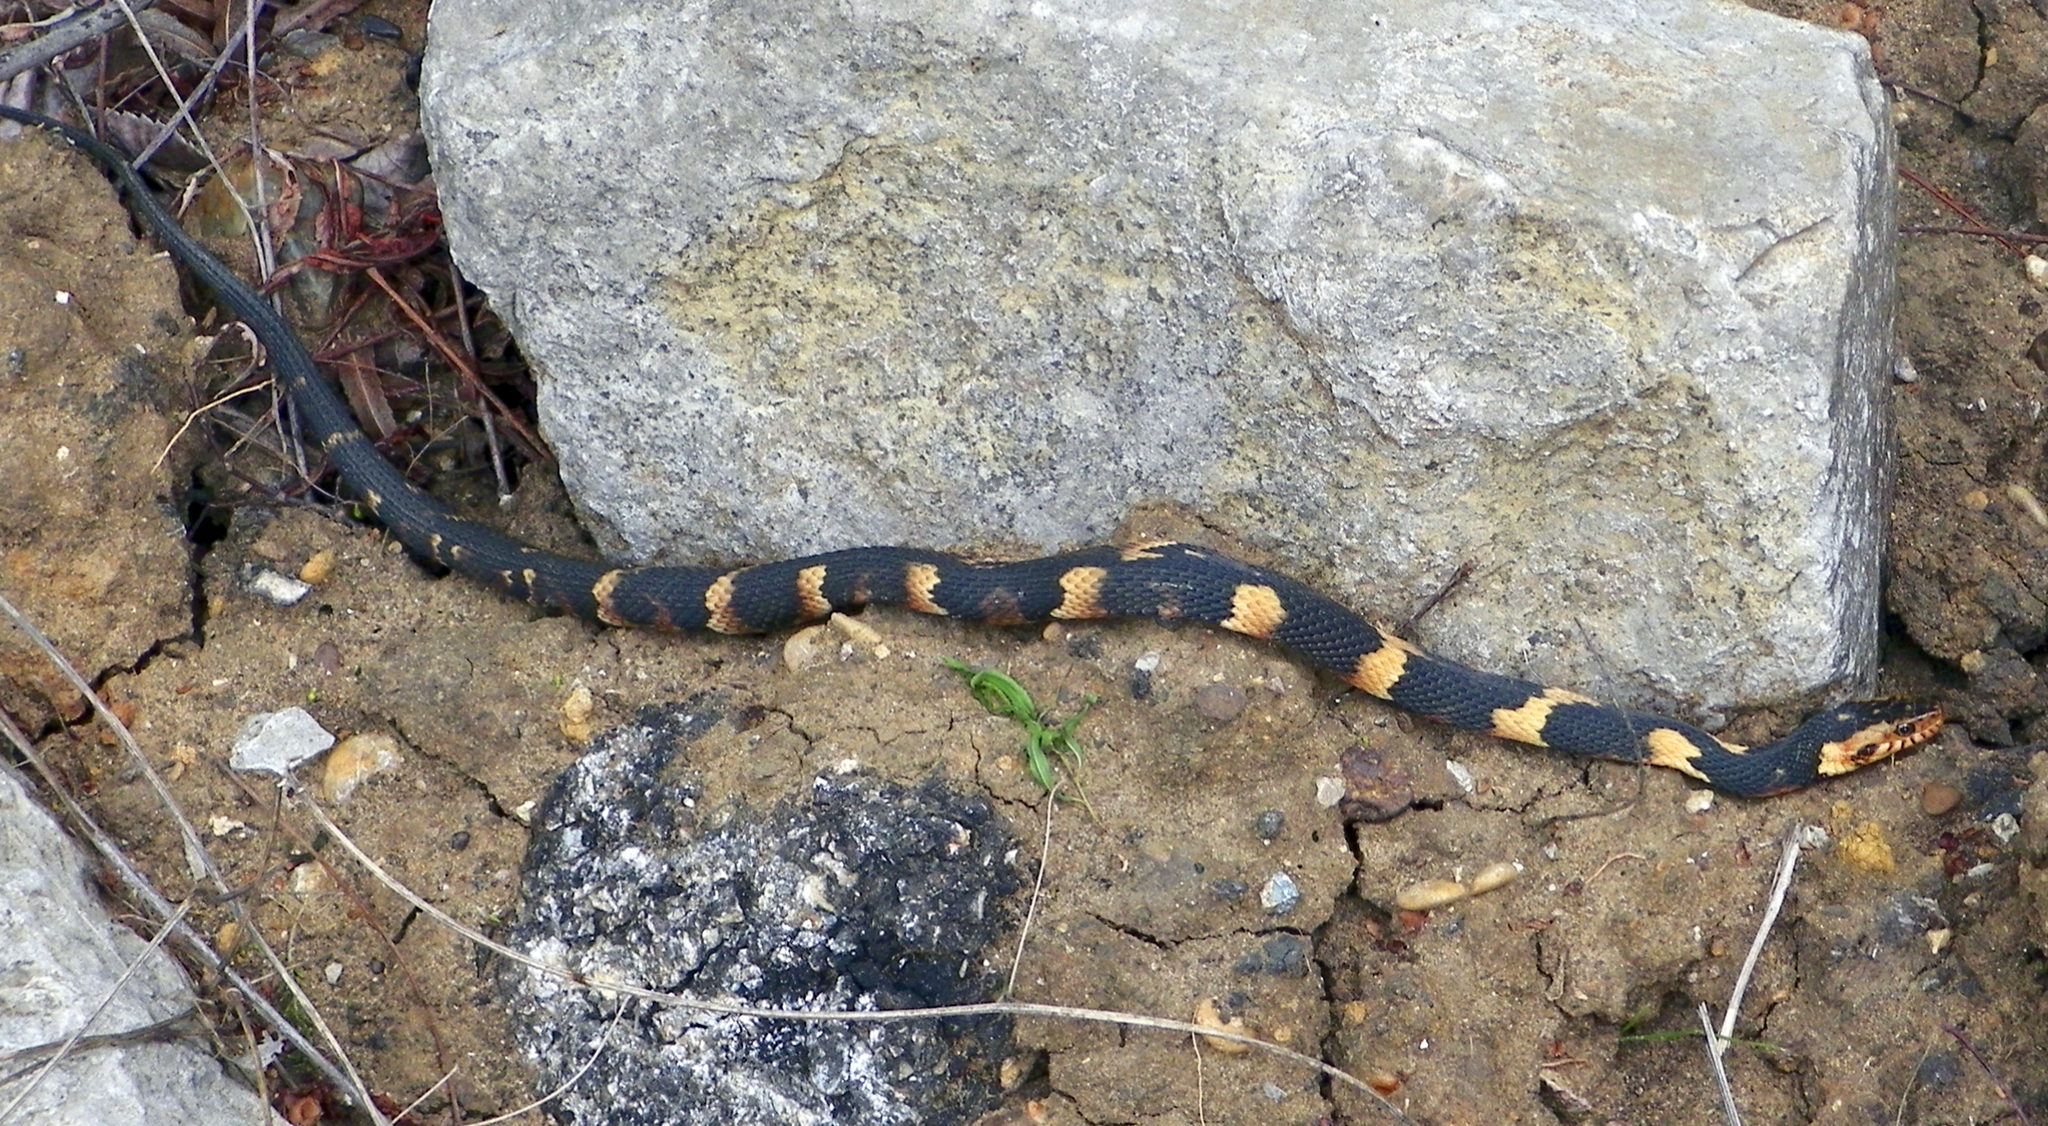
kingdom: Animalia
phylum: Chordata
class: Squamata
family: Colubridae
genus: Nerodia
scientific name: Nerodia fasciata
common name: Southern water snake
